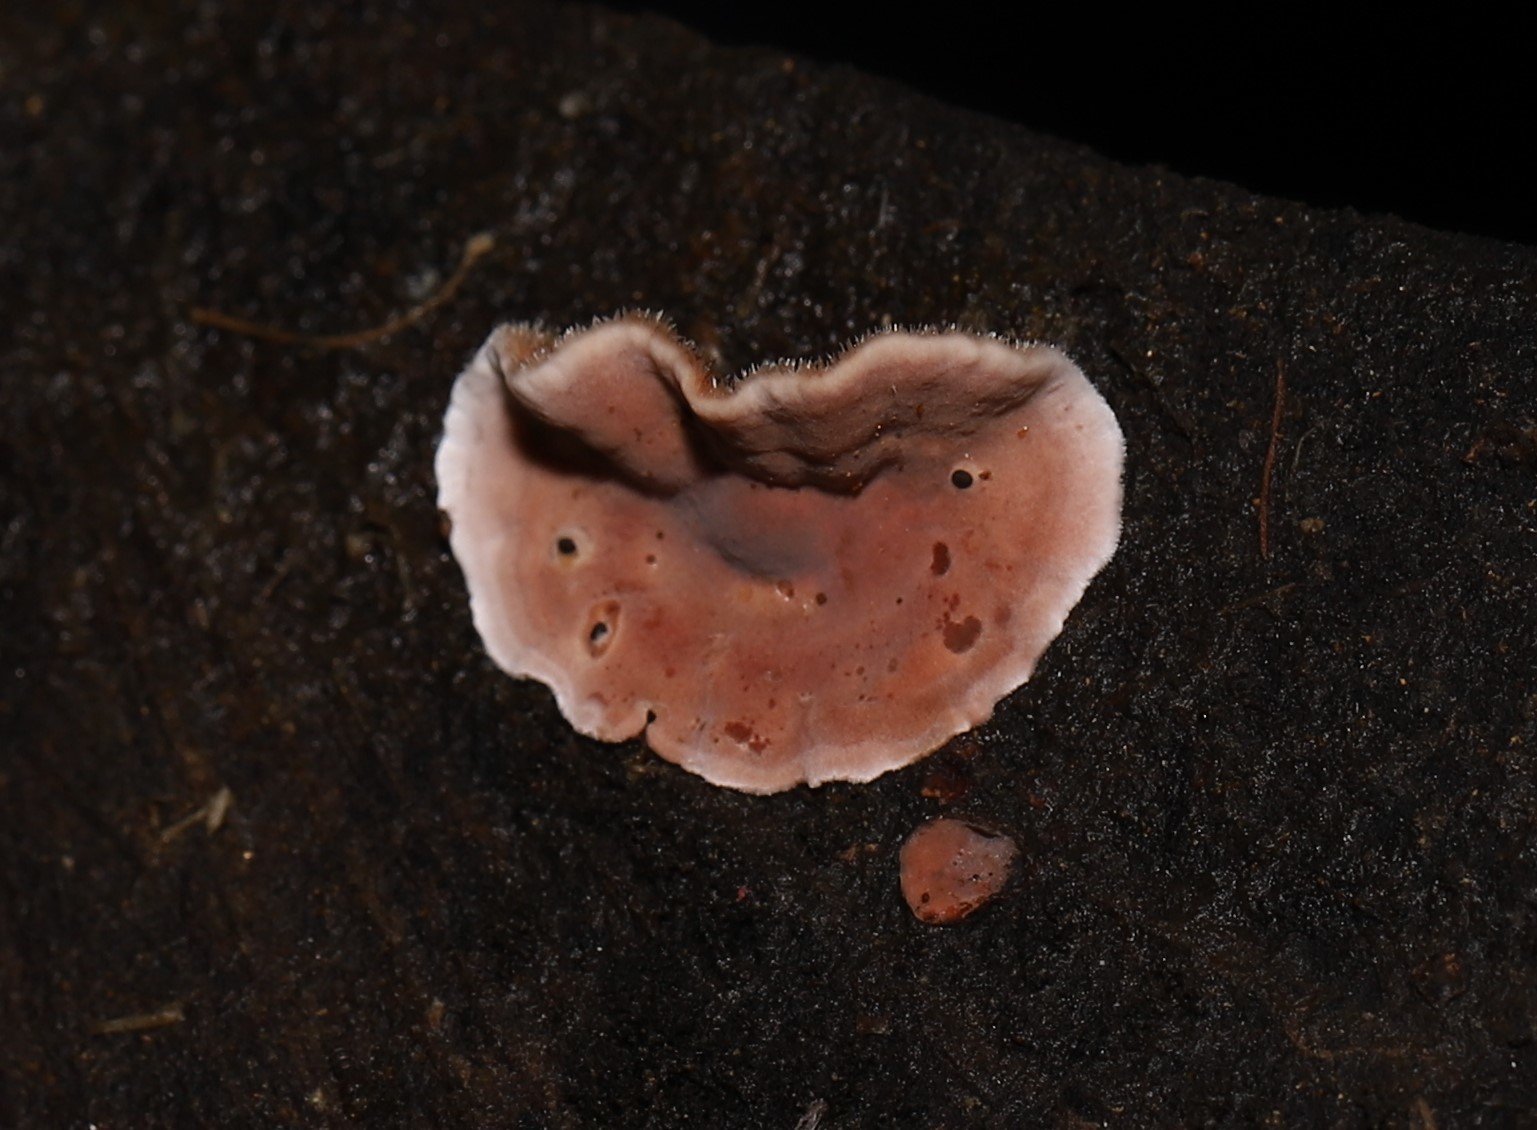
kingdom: Fungi
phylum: Basidiomycota
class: Agaricomycetes
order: Russulales
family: Stereaceae
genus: Xylobolus
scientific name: Xylobolus illudens
